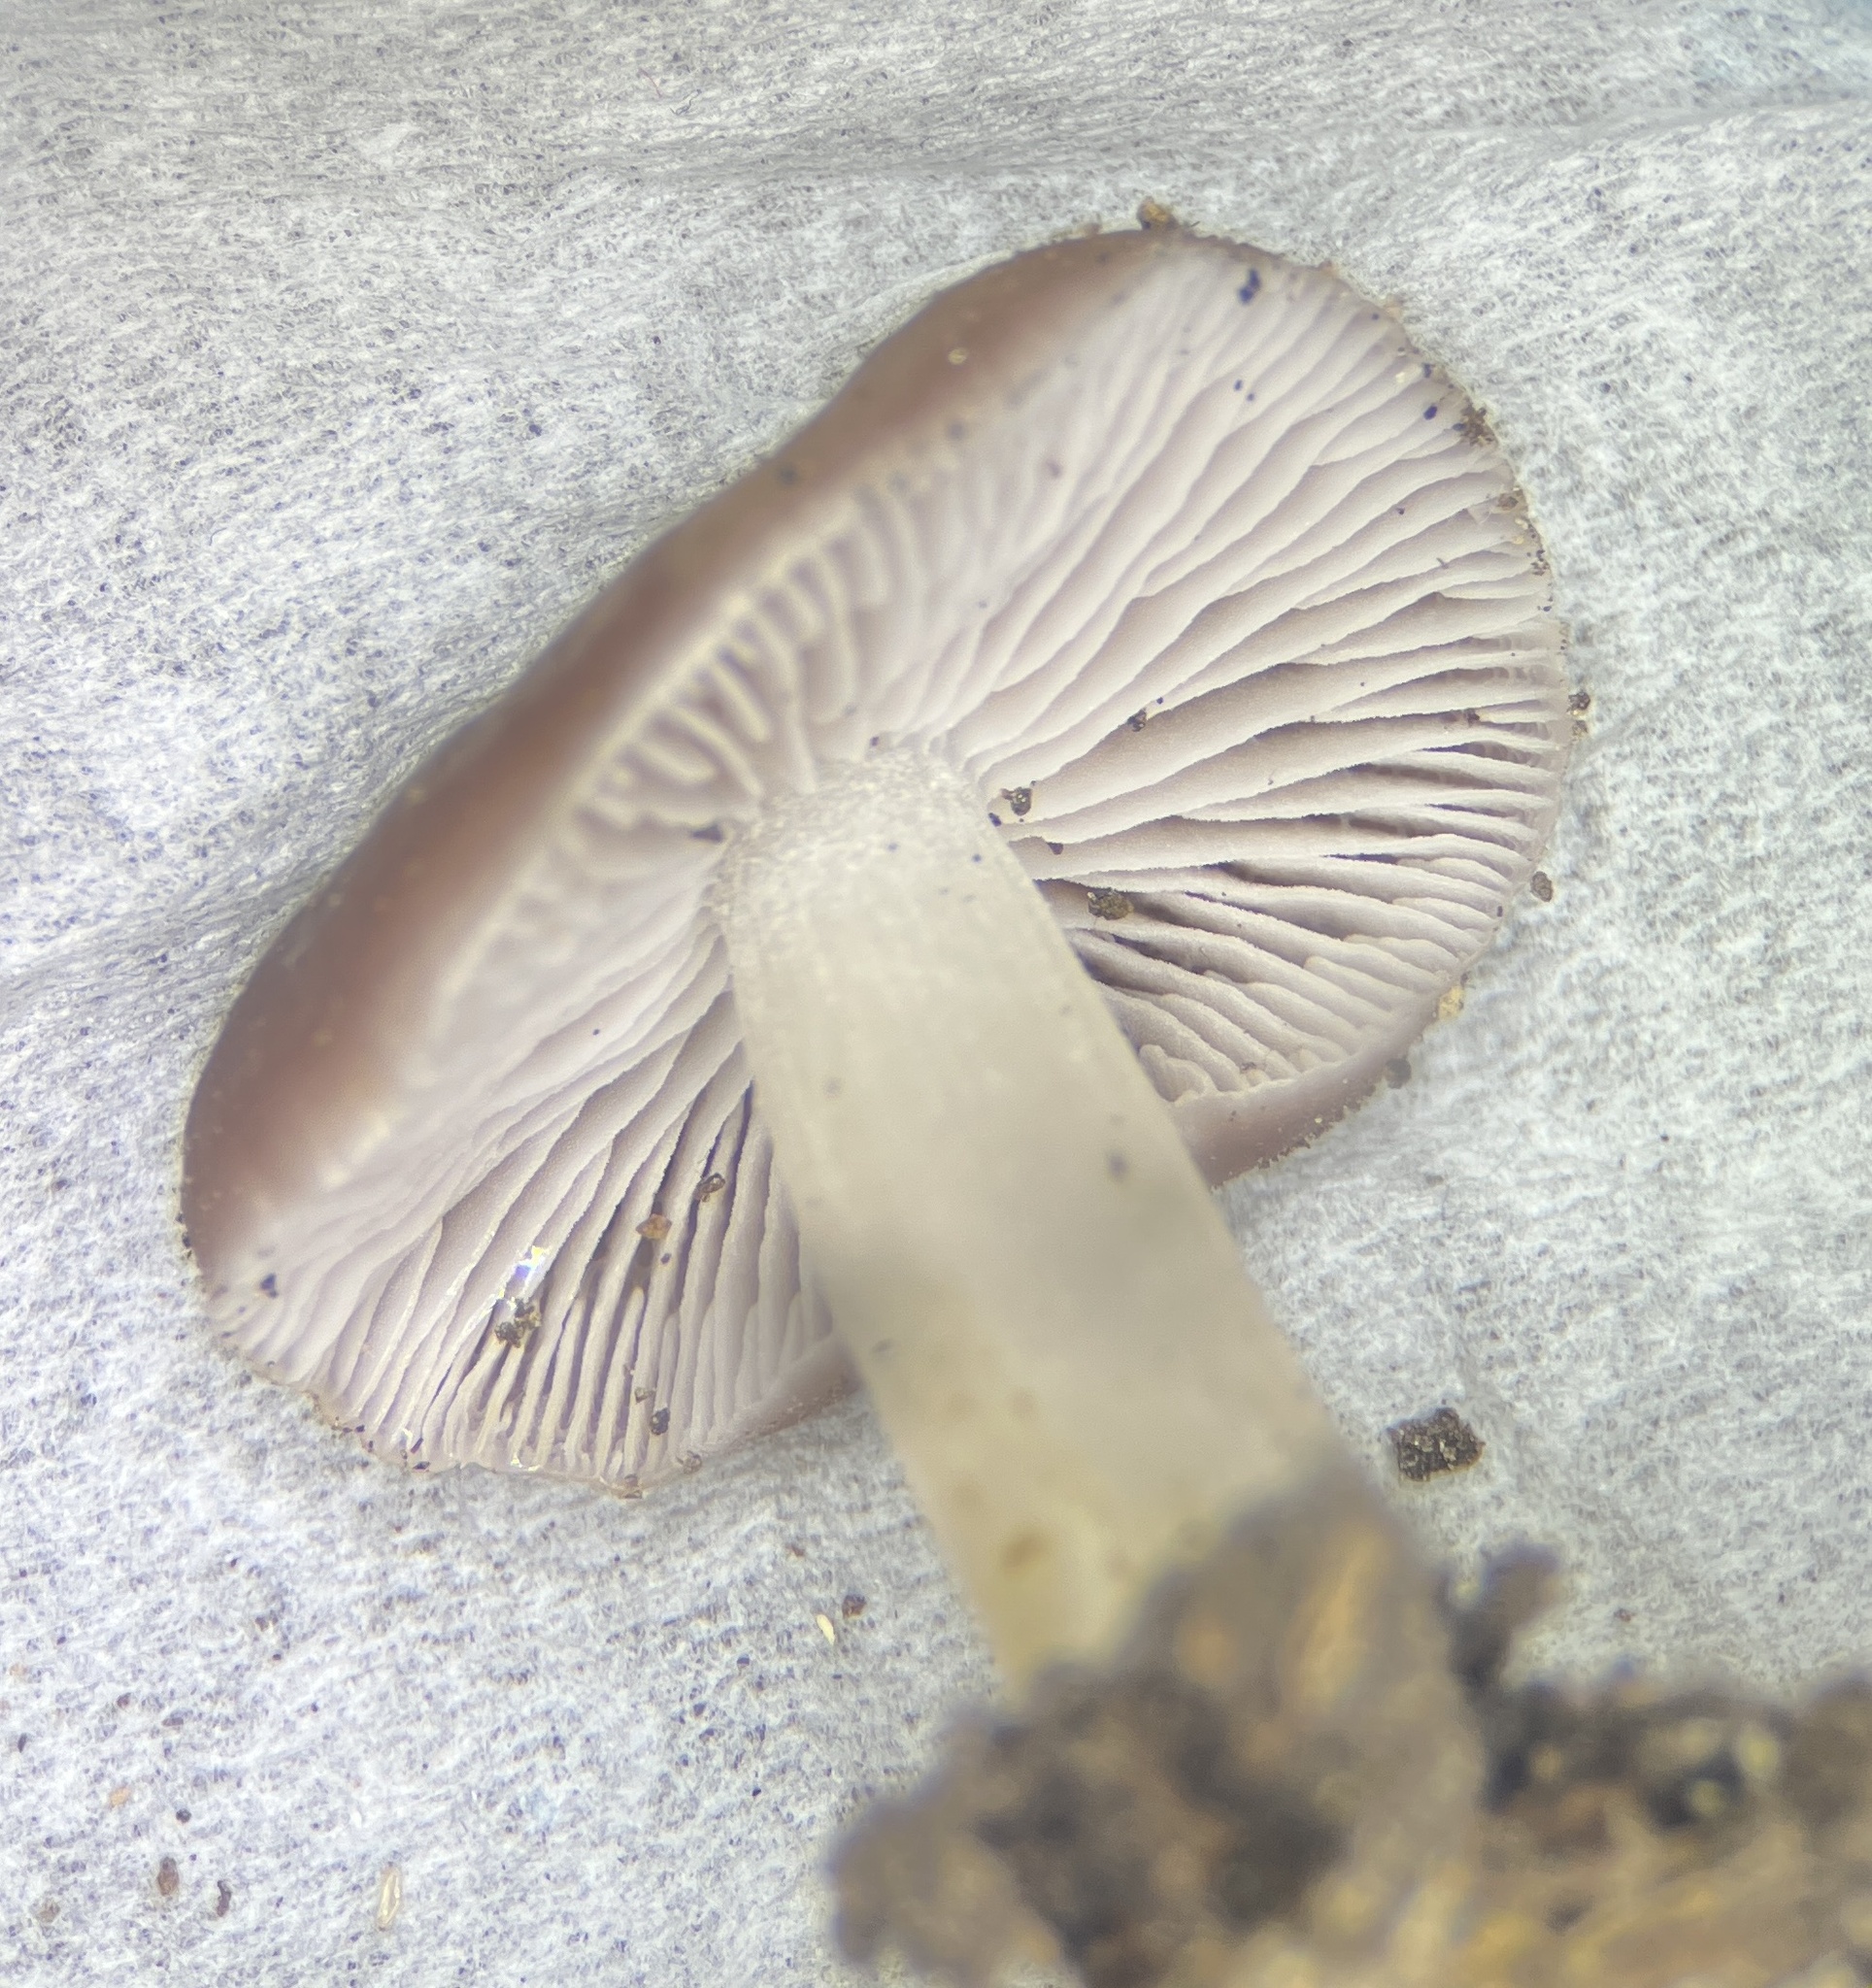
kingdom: Fungi
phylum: Basidiomycota
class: Agaricomycetes
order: Agaricales
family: Mycenaceae
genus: Mycena
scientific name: Mycena pura
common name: Lilac bonnet
